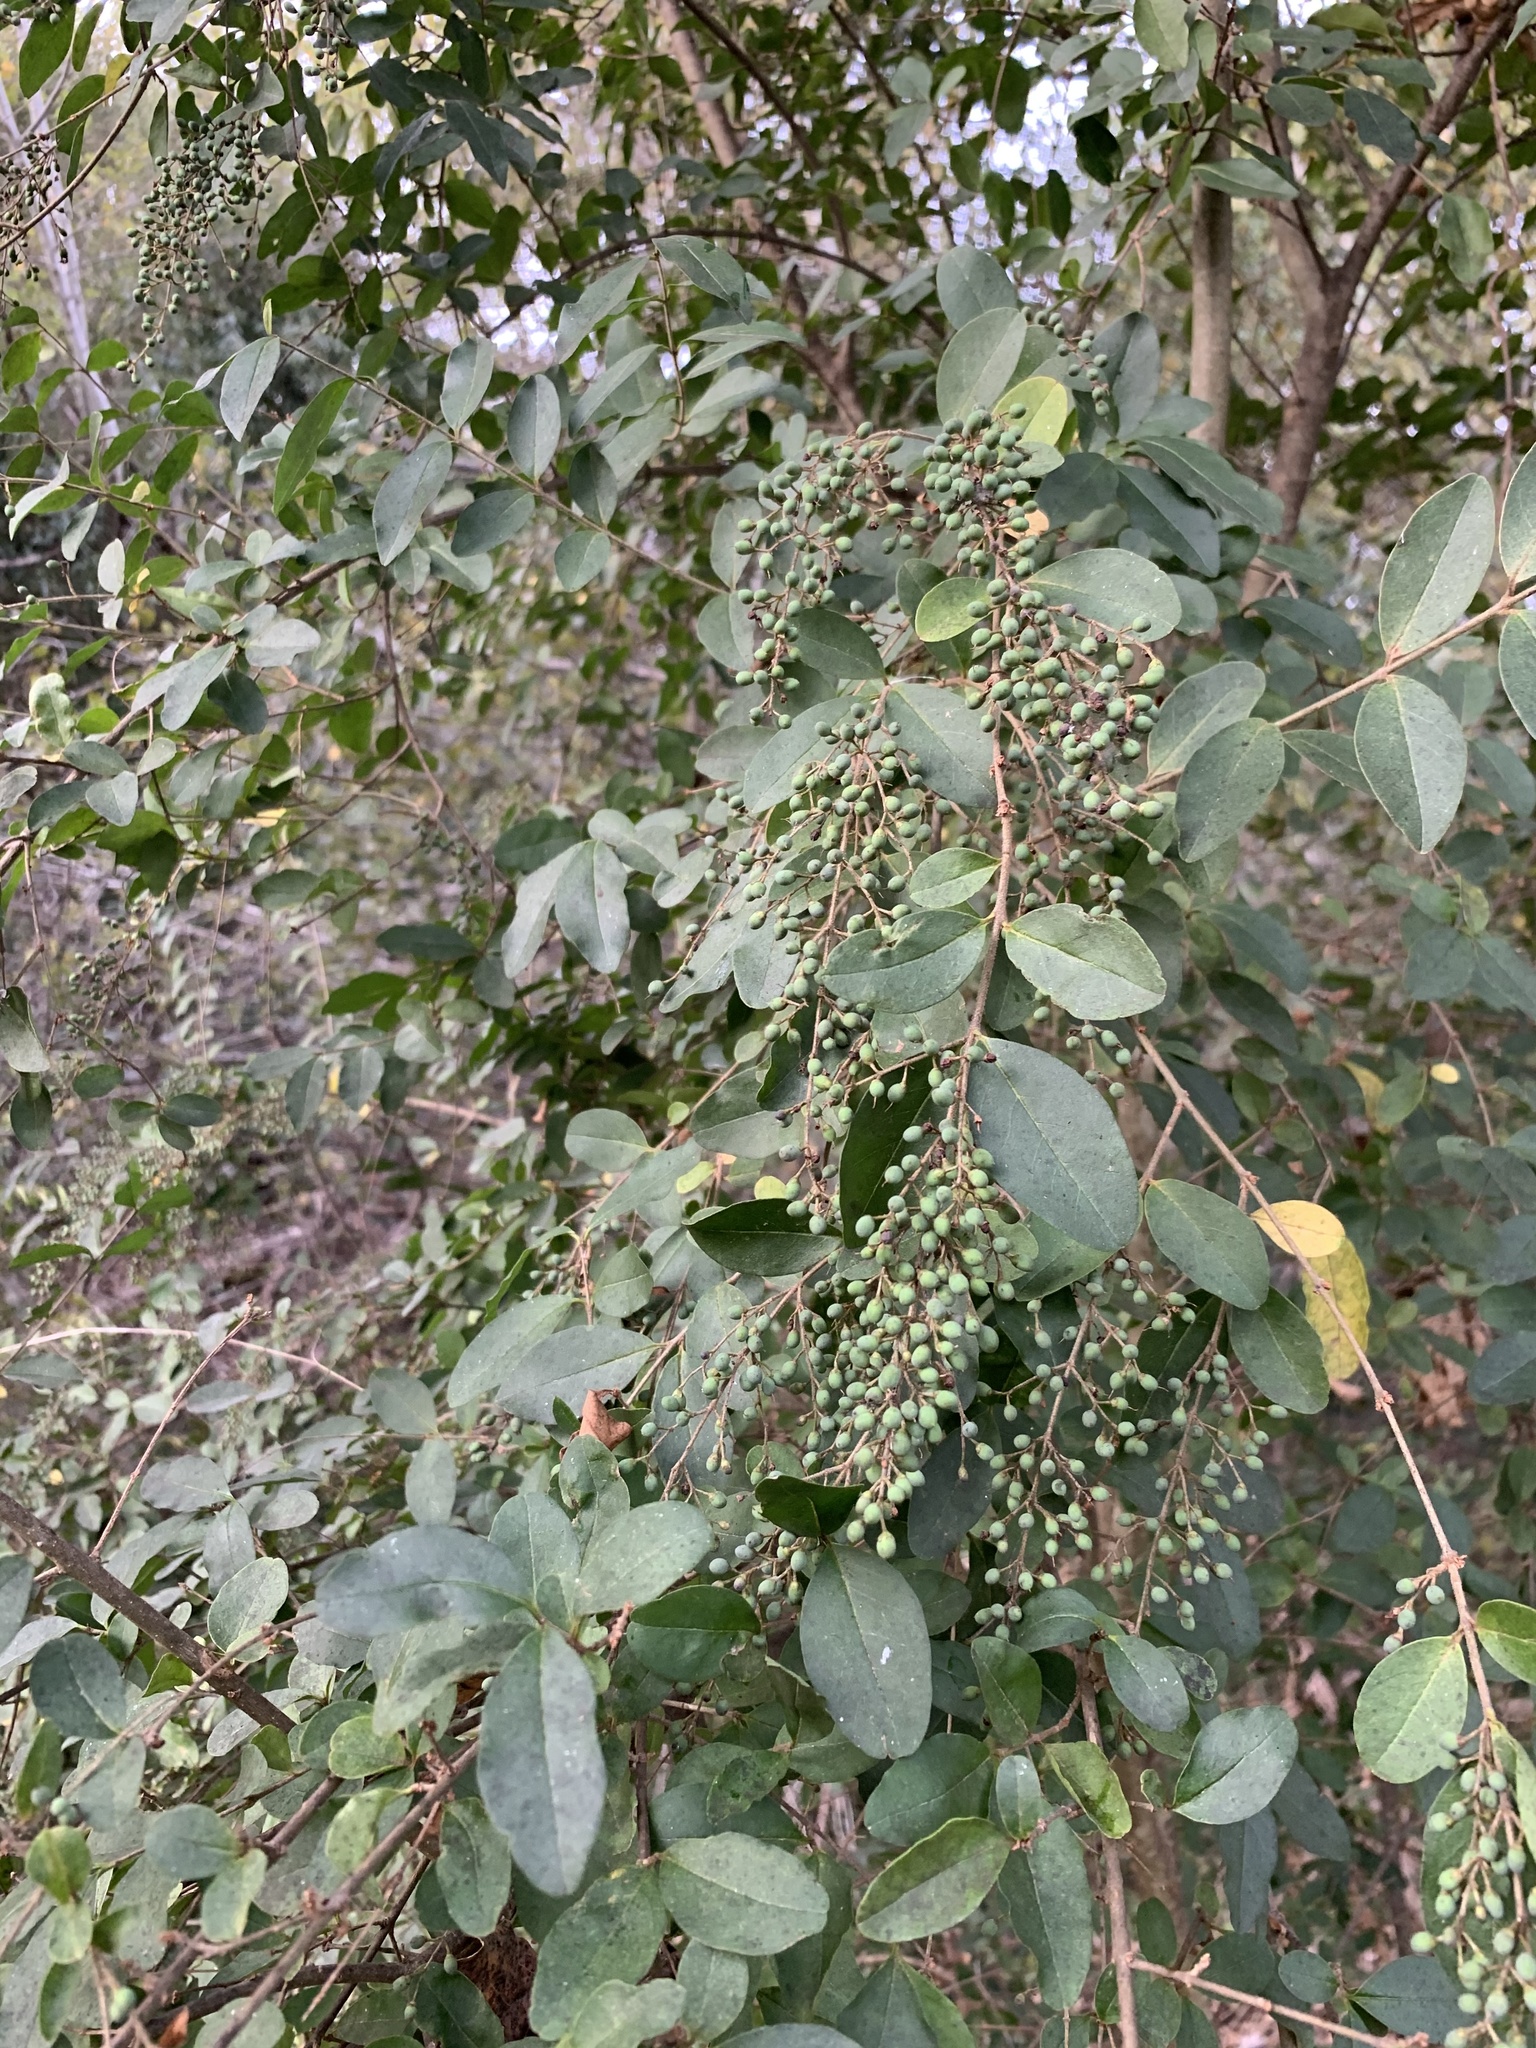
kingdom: Plantae
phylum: Tracheophyta
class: Magnoliopsida
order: Lamiales
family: Oleaceae
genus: Ligustrum
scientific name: Ligustrum sinense
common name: Chinese privet
